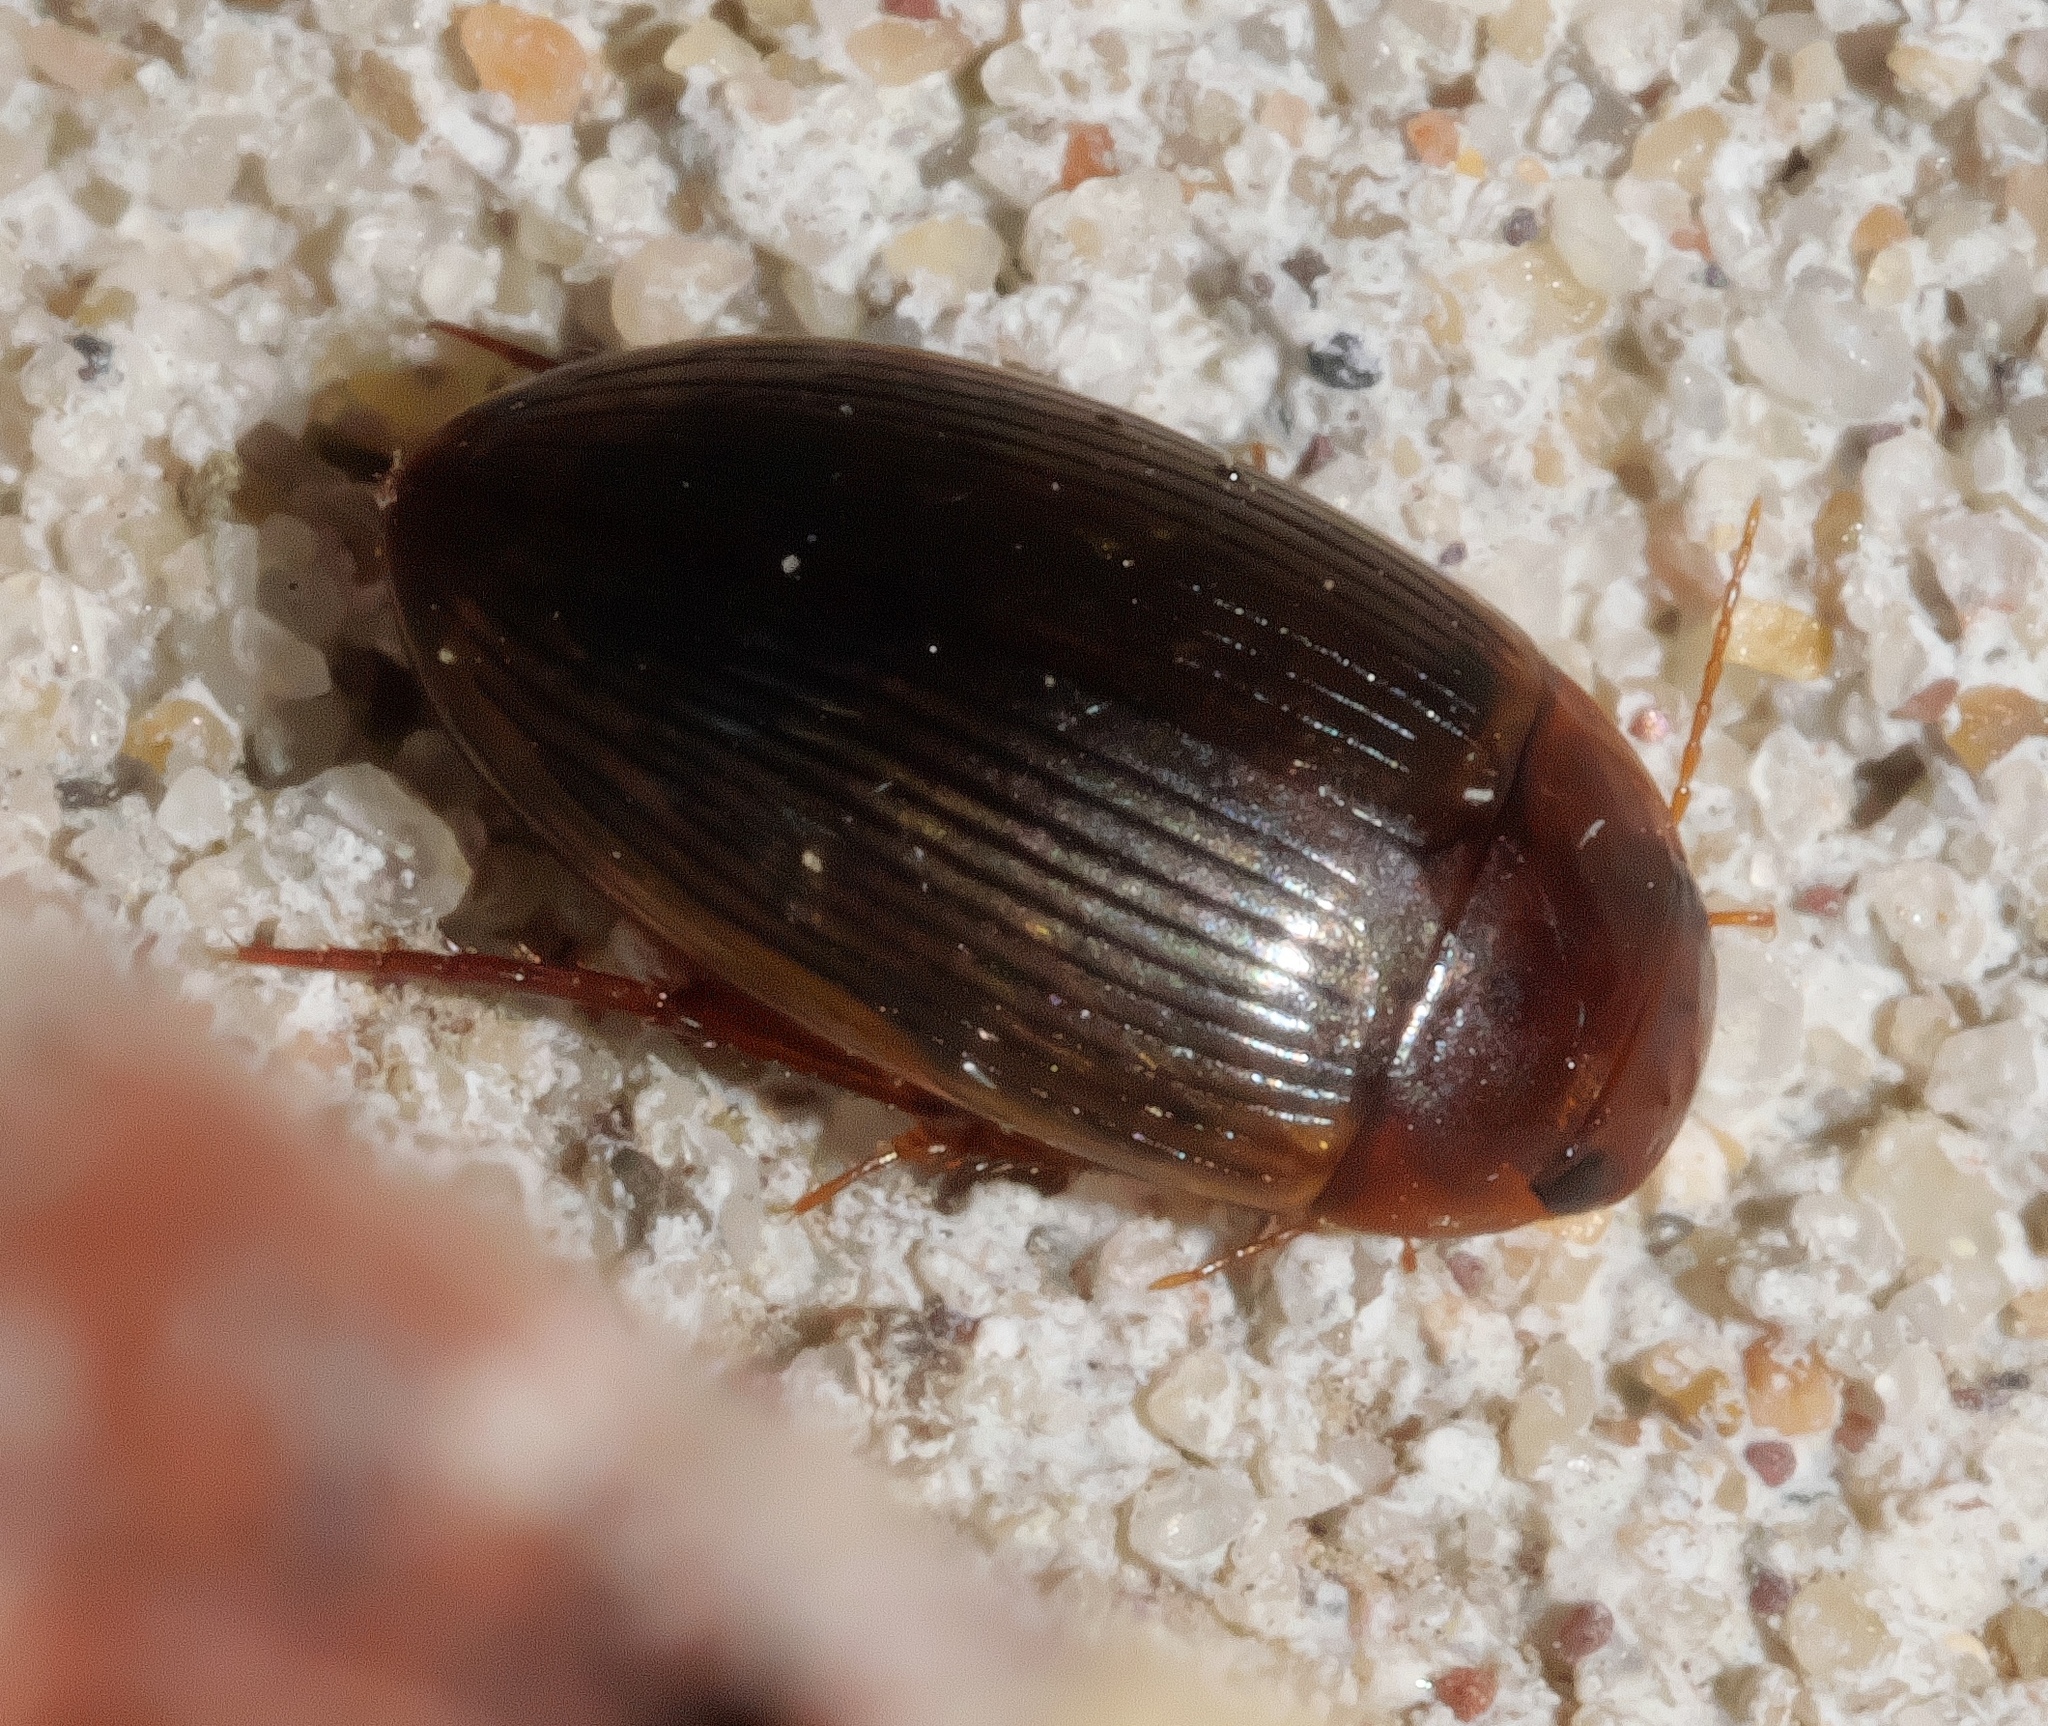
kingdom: Animalia
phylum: Arthropoda
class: Insecta
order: Coleoptera
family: Dytiscidae
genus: Copelatus
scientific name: Copelatus glyphicus
